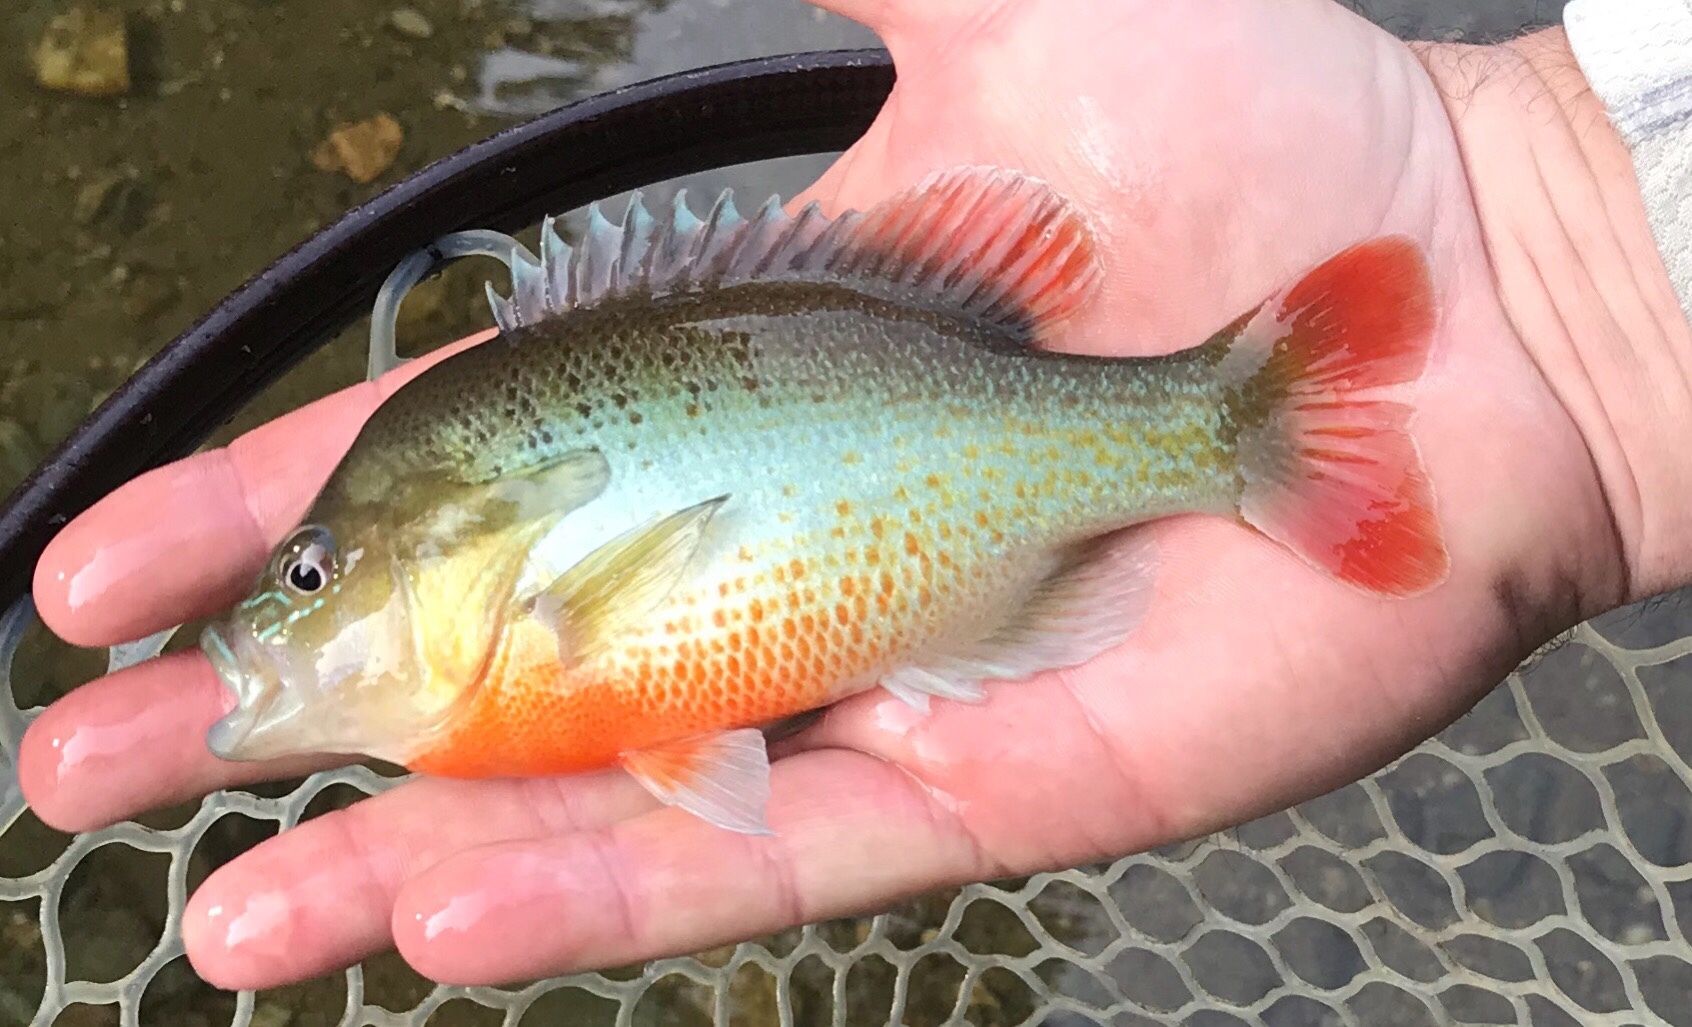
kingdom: Animalia
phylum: Chordata
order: Perciformes
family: Centrarchidae
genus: Lepomis
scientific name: Lepomis auritus
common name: Redbreast sunfish
